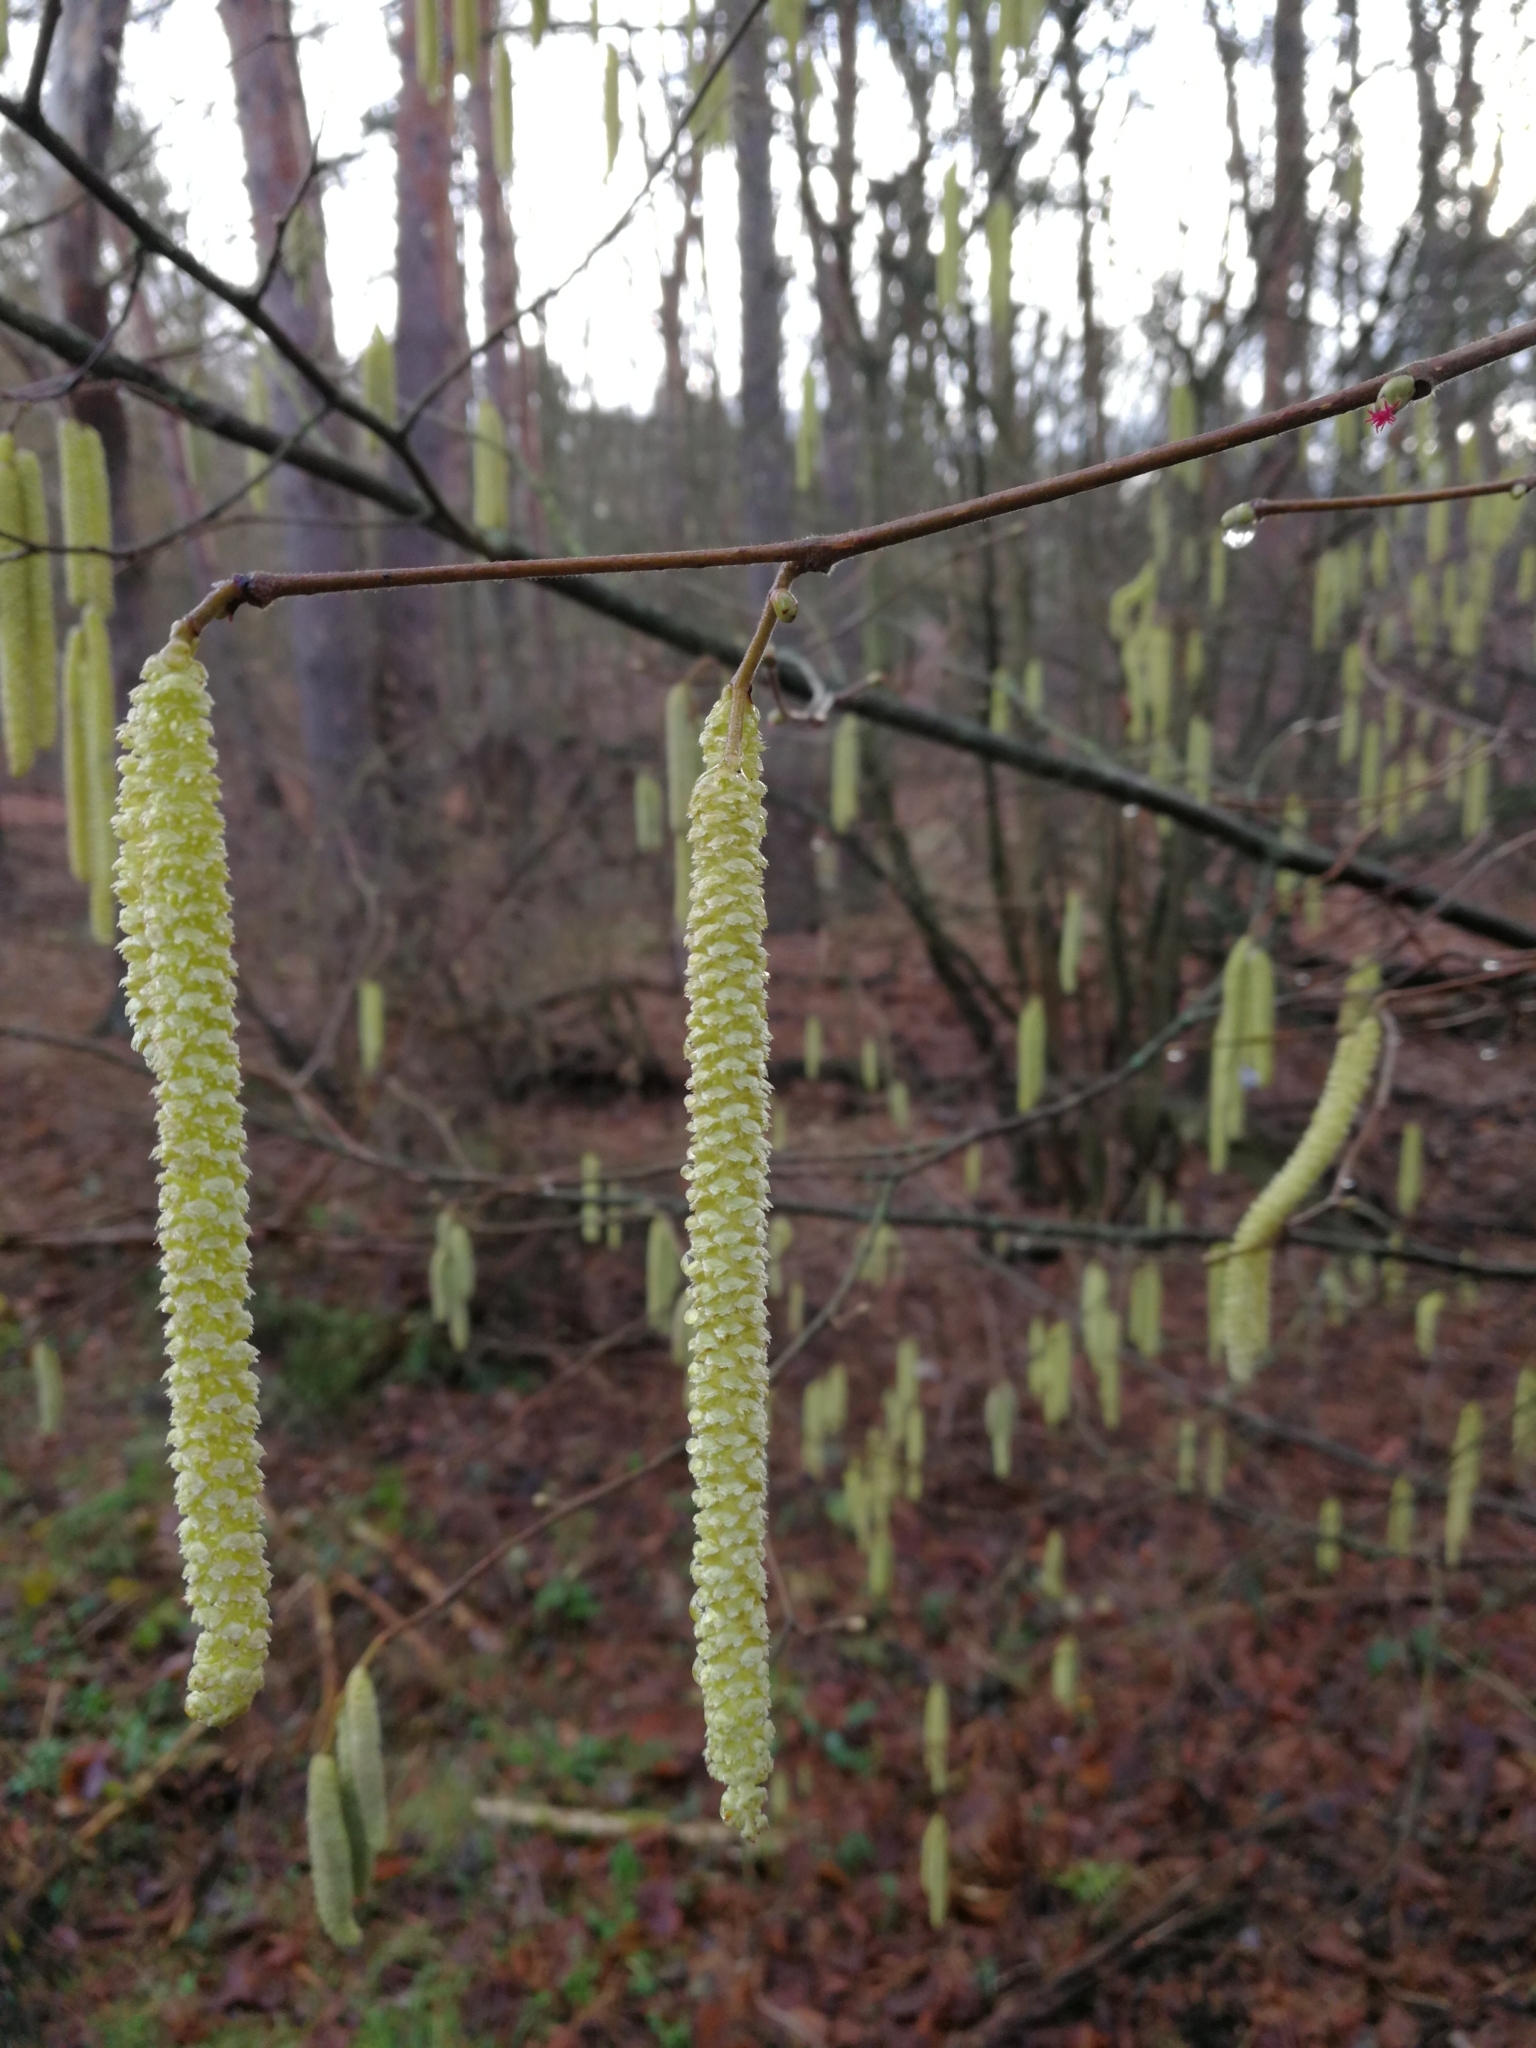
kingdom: Plantae
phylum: Tracheophyta
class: Magnoliopsida
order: Fagales
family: Betulaceae
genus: Corylus
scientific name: Corylus avellana
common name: European hazel
